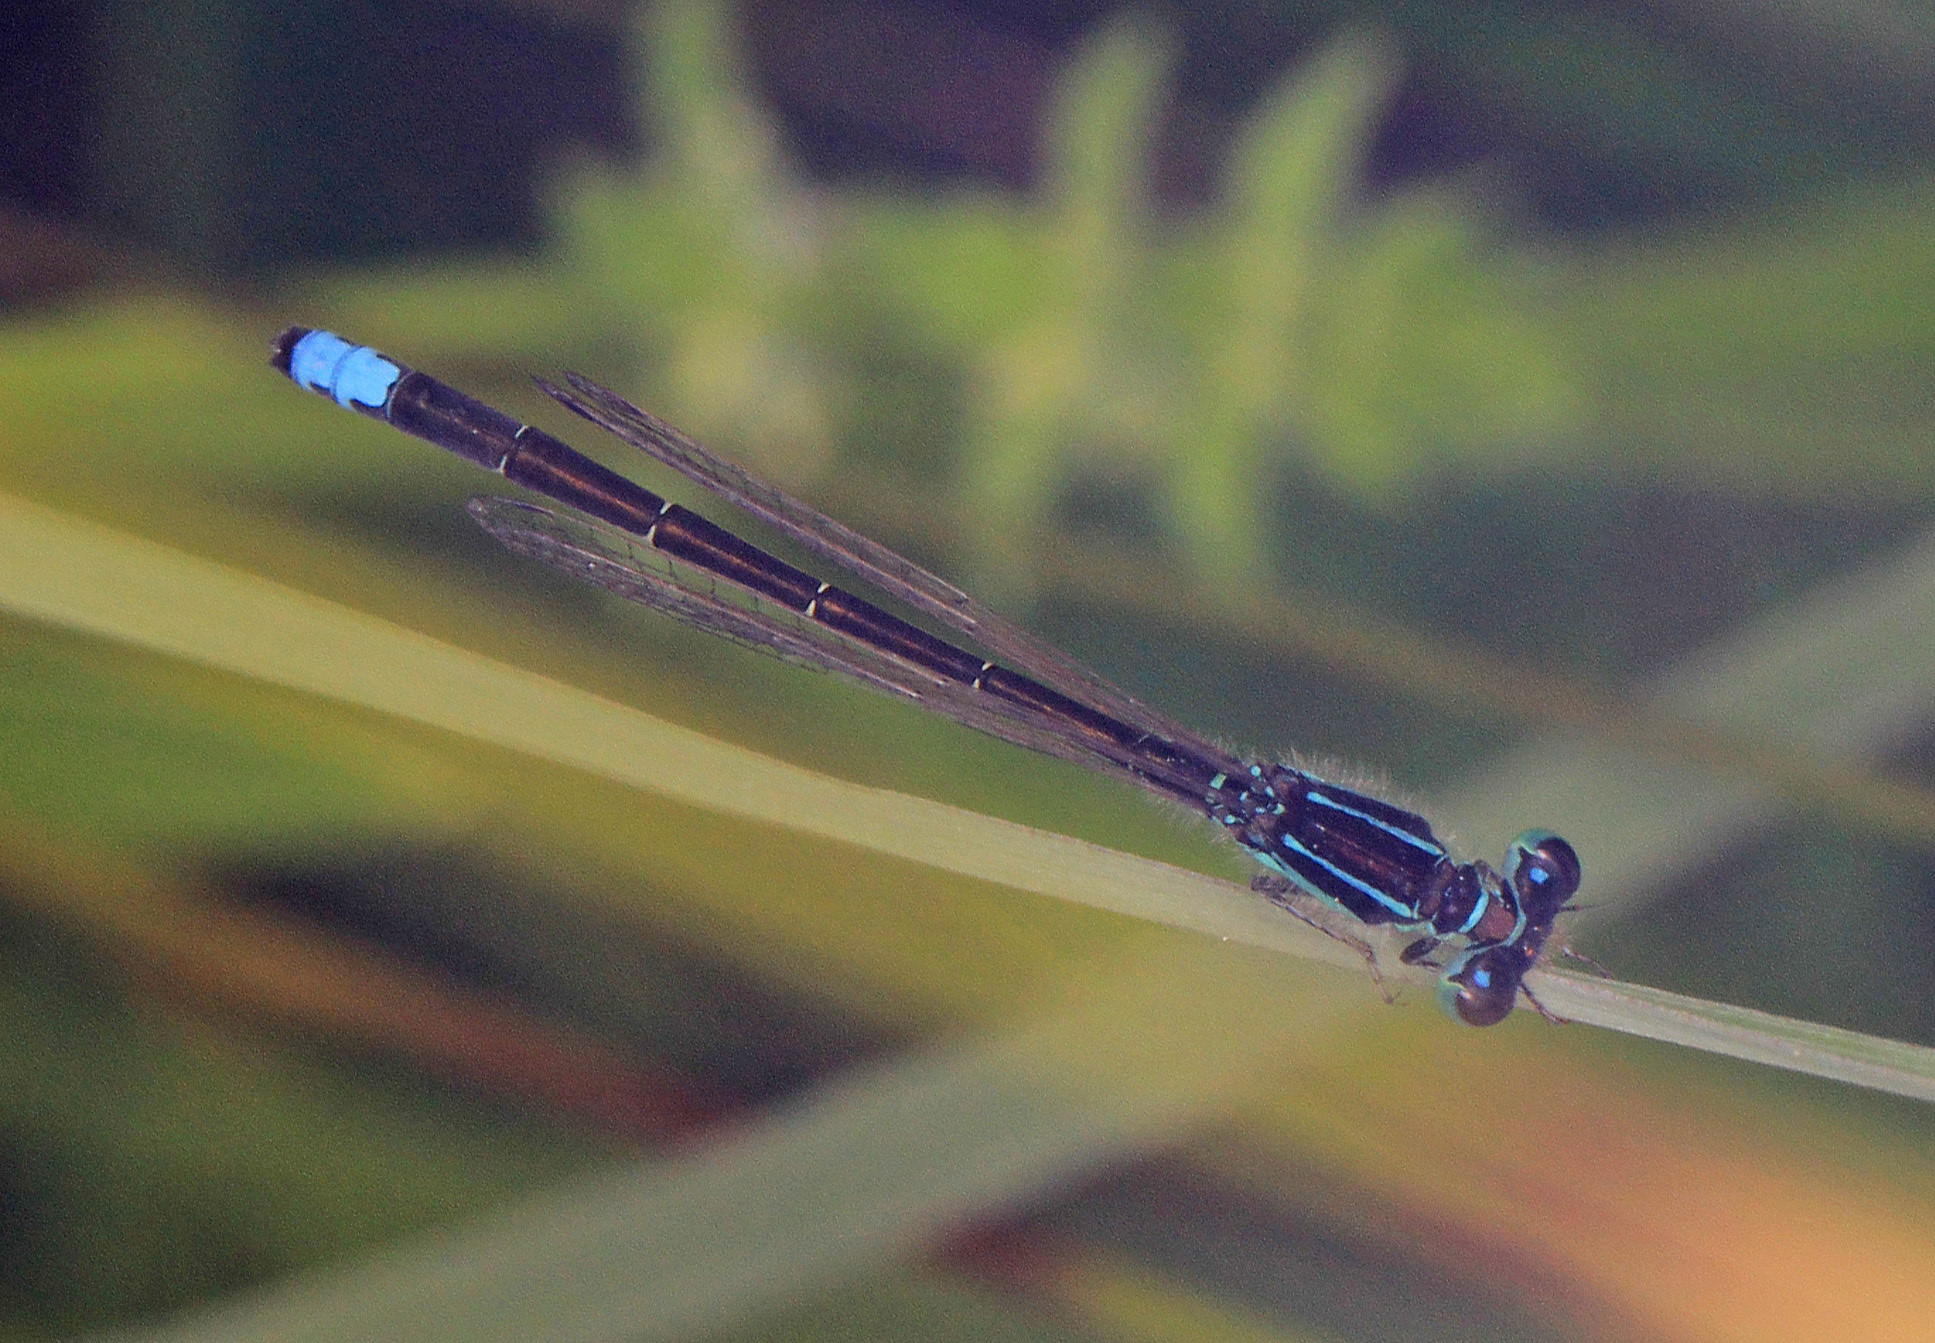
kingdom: Animalia
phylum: Arthropoda
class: Insecta
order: Odonata
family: Coenagrionidae
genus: Ischnura
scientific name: Ischnura verticalis
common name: Eastern forktail
